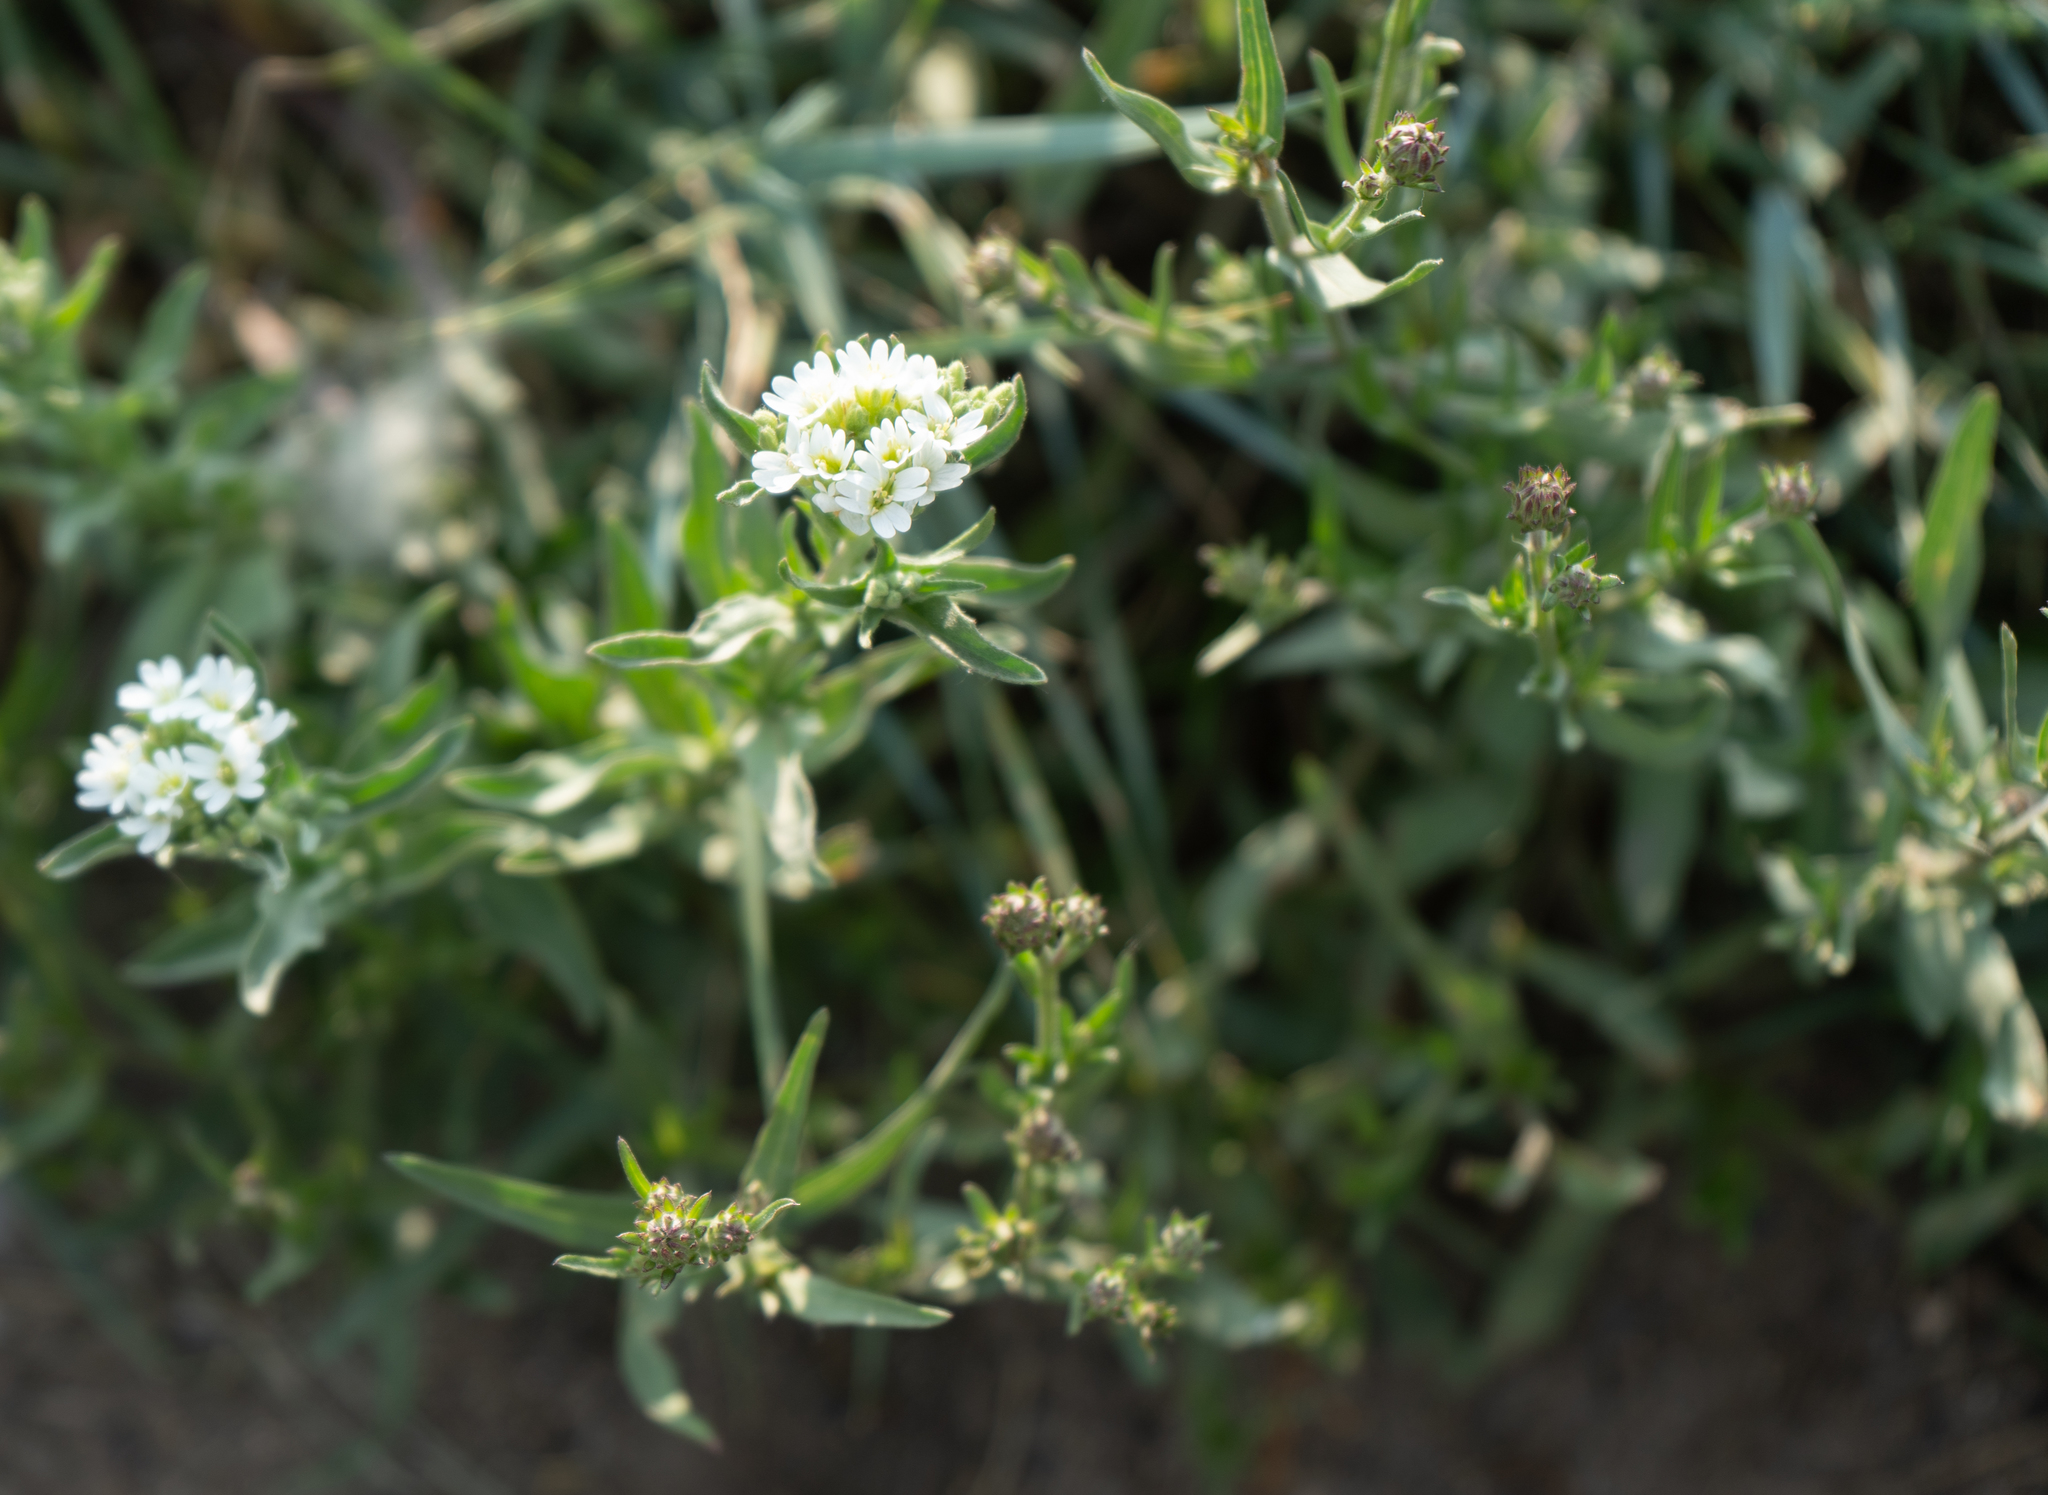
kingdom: Plantae
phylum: Tracheophyta
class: Magnoliopsida
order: Brassicales
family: Brassicaceae
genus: Berteroa
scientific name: Berteroa incana
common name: Hoary alison
